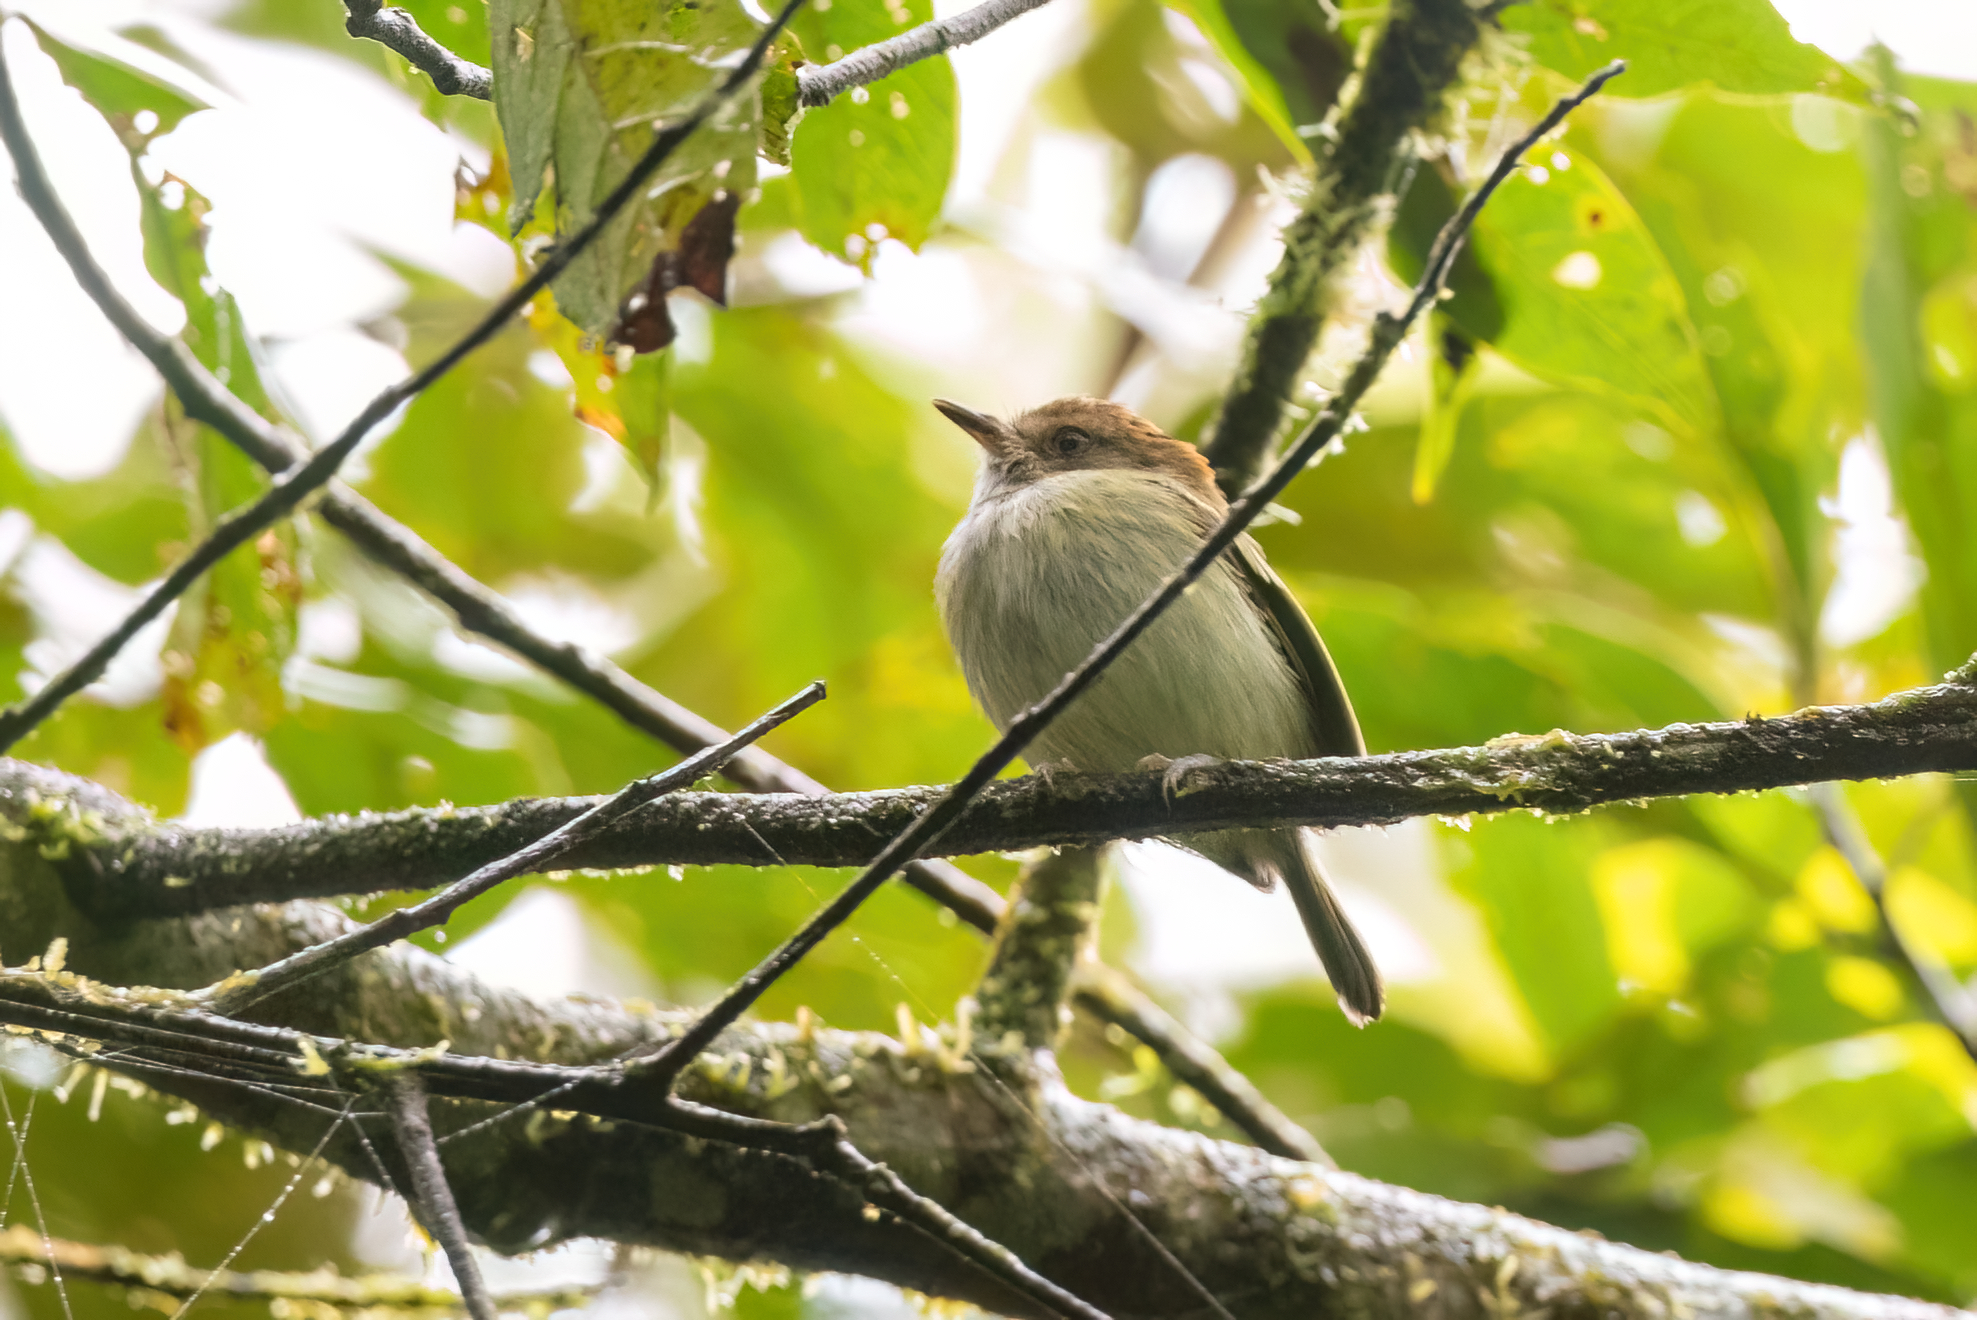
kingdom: Animalia
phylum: Chordata
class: Aves
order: Passeriformes
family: Tyrannidae
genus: Lophotriccus
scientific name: Lophotriccus pileatus
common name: Scale-crested pygmy-tyrant
